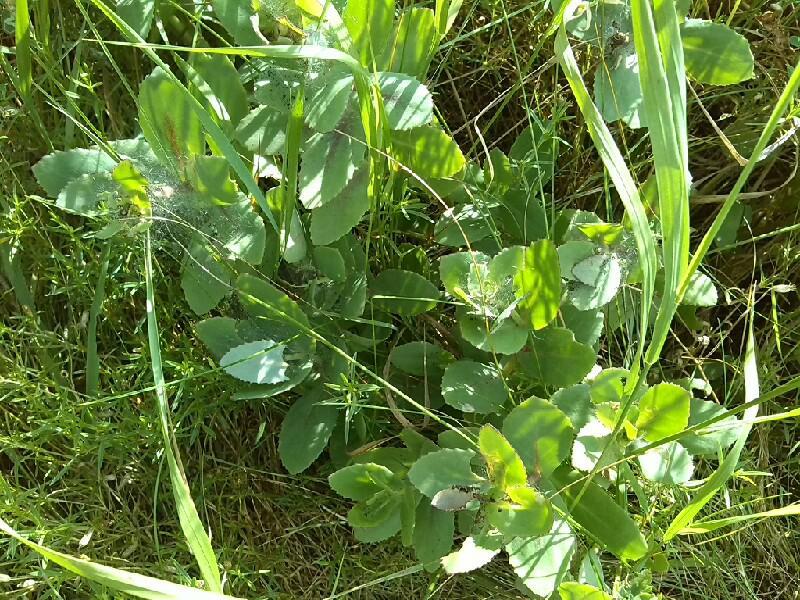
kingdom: Plantae
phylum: Tracheophyta
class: Magnoliopsida
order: Saxifragales
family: Crassulaceae
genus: Hylotelephium
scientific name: Hylotelephium maximum
